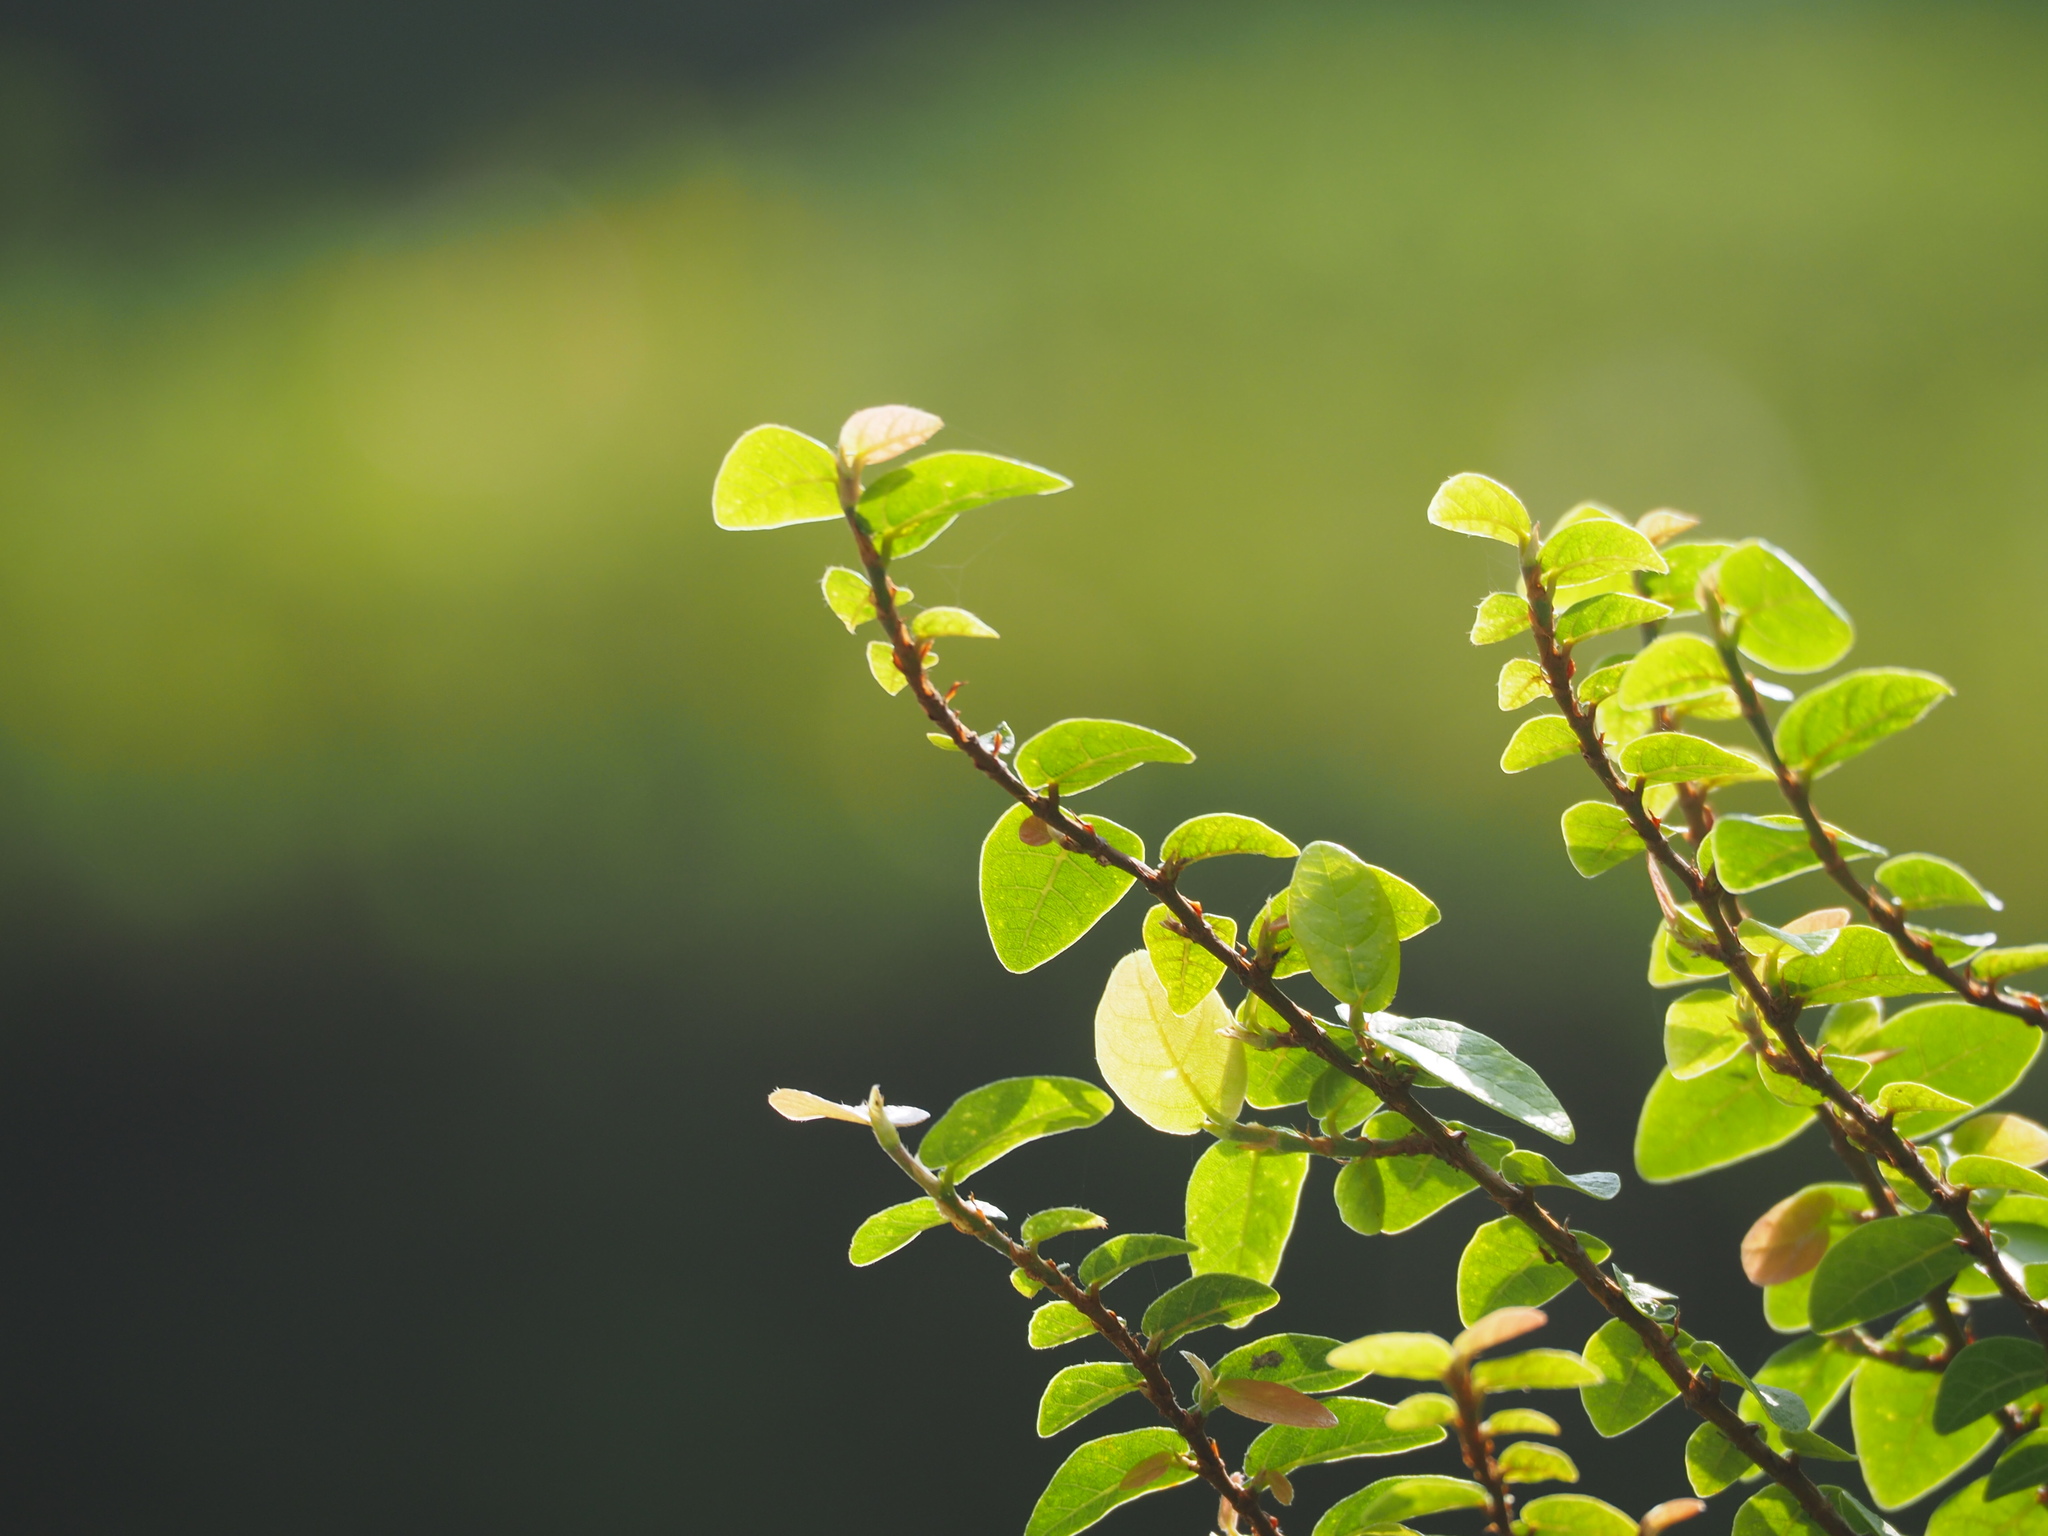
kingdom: Plantae
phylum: Tracheophyta
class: Magnoliopsida
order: Rosales
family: Moraceae
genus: Ficus
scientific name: Ficus pumila
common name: Climbingfig
